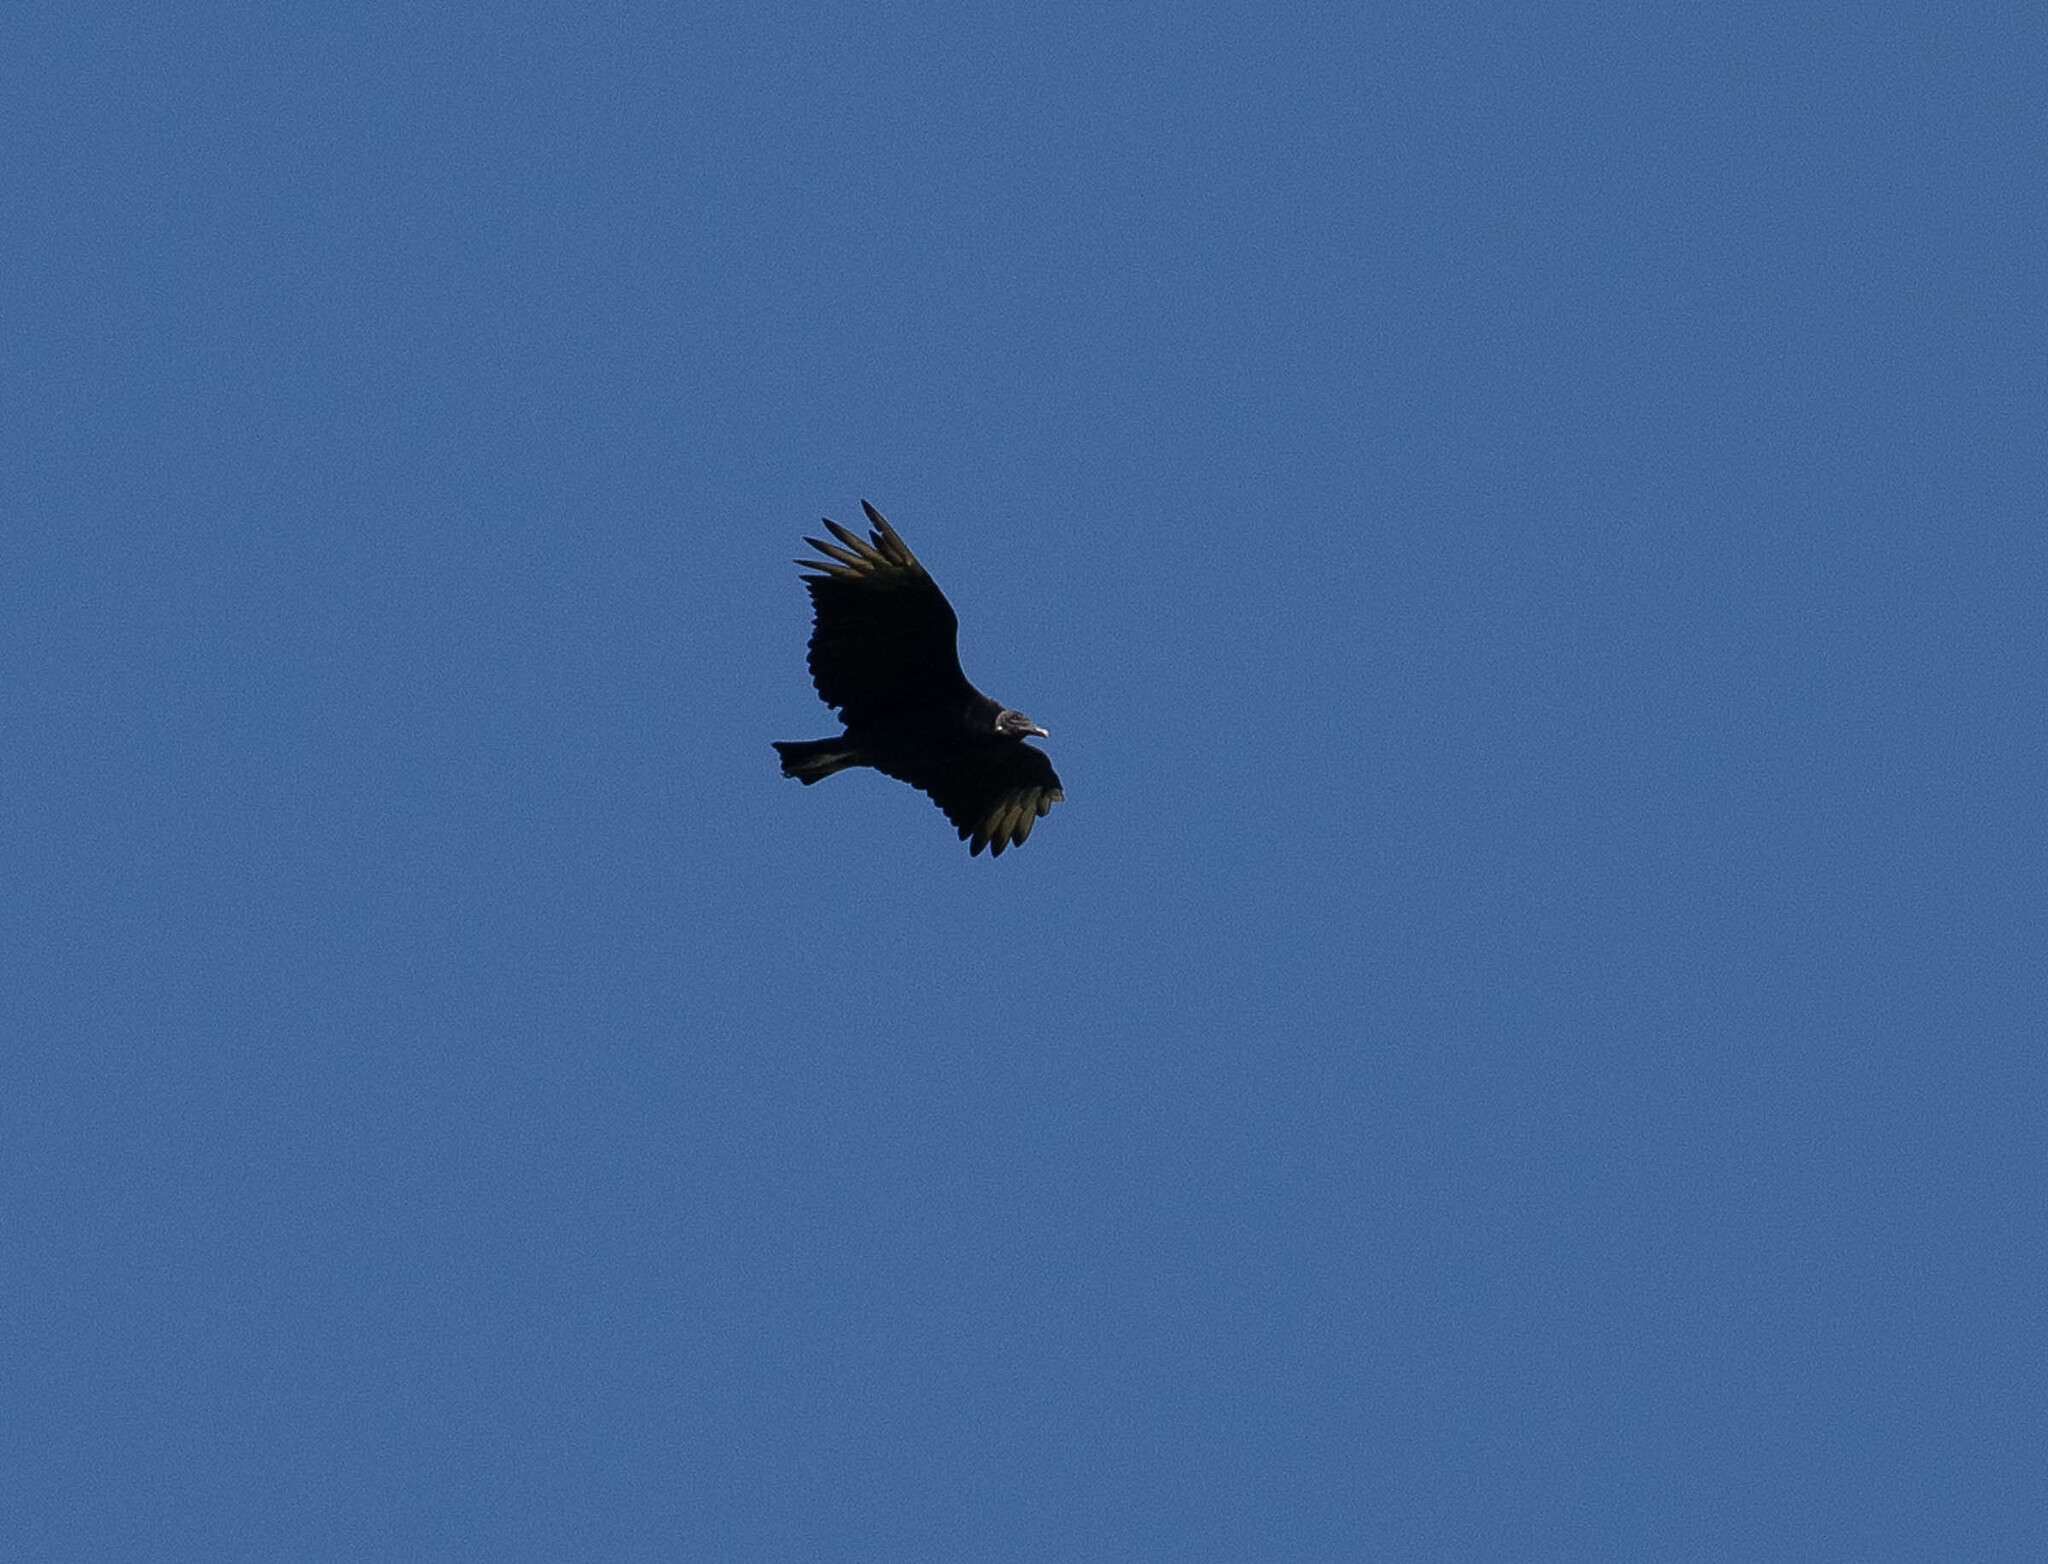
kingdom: Animalia
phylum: Chordata
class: Aves
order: Accipitriformes
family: Cathartidae
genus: Coragyps
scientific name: Coragyps atratus
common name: Black vulture
